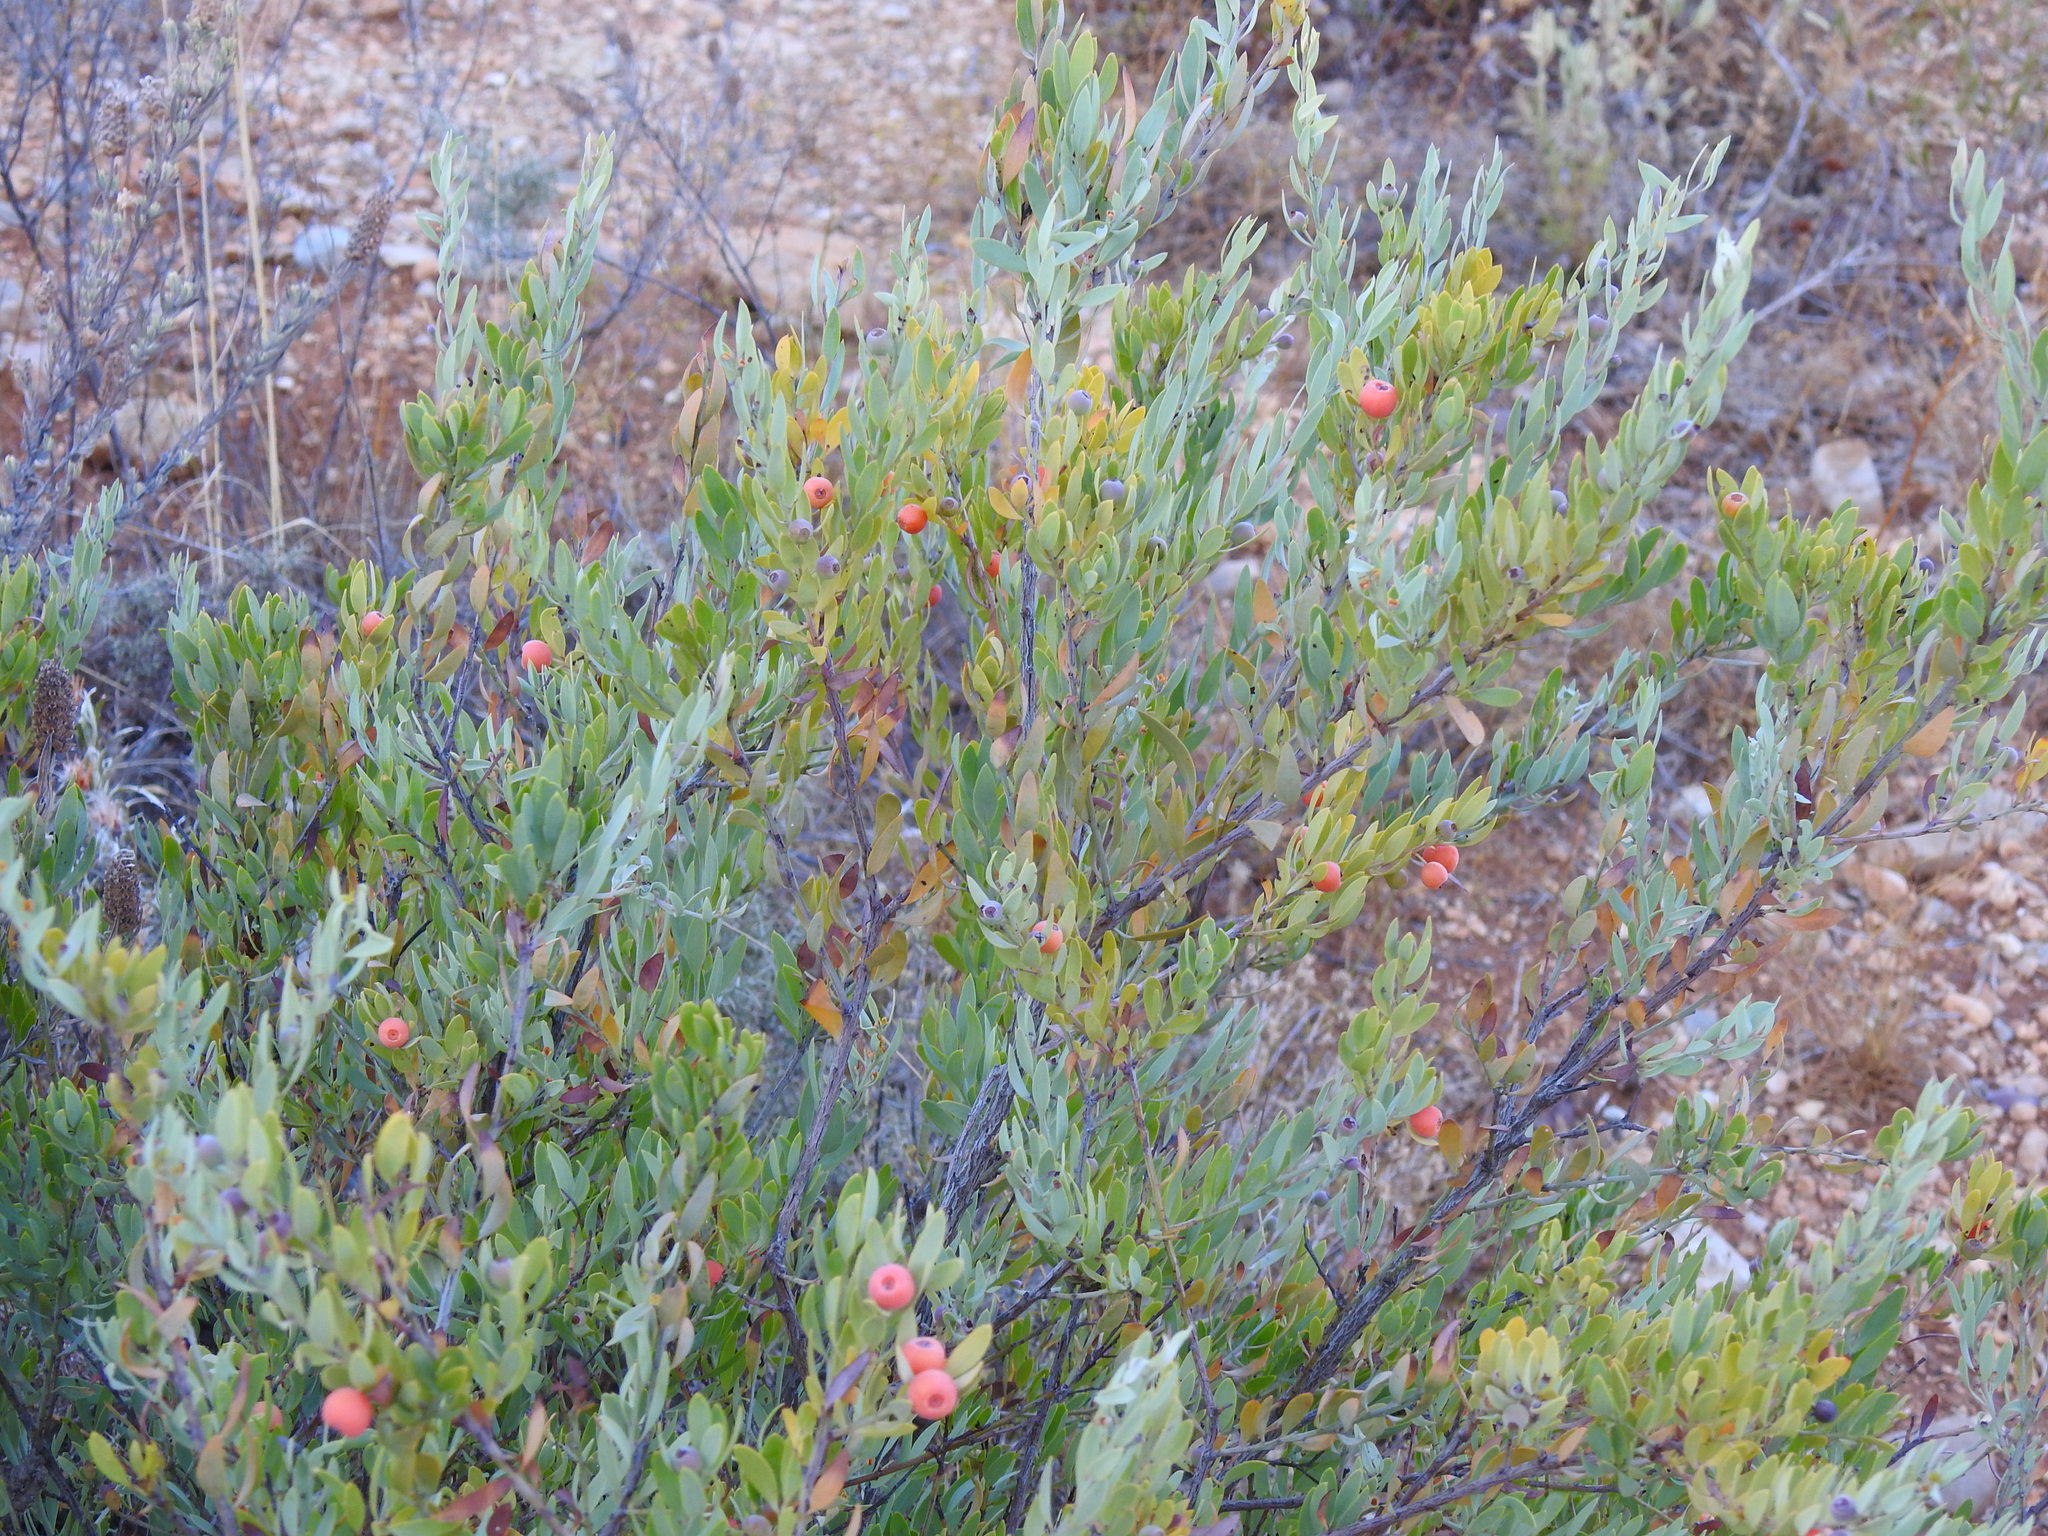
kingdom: Plantae
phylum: Tracheophyta
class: Magnoliopsida
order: Santalales
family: Santalaceae
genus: Osyris
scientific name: Osyris lanceolata
